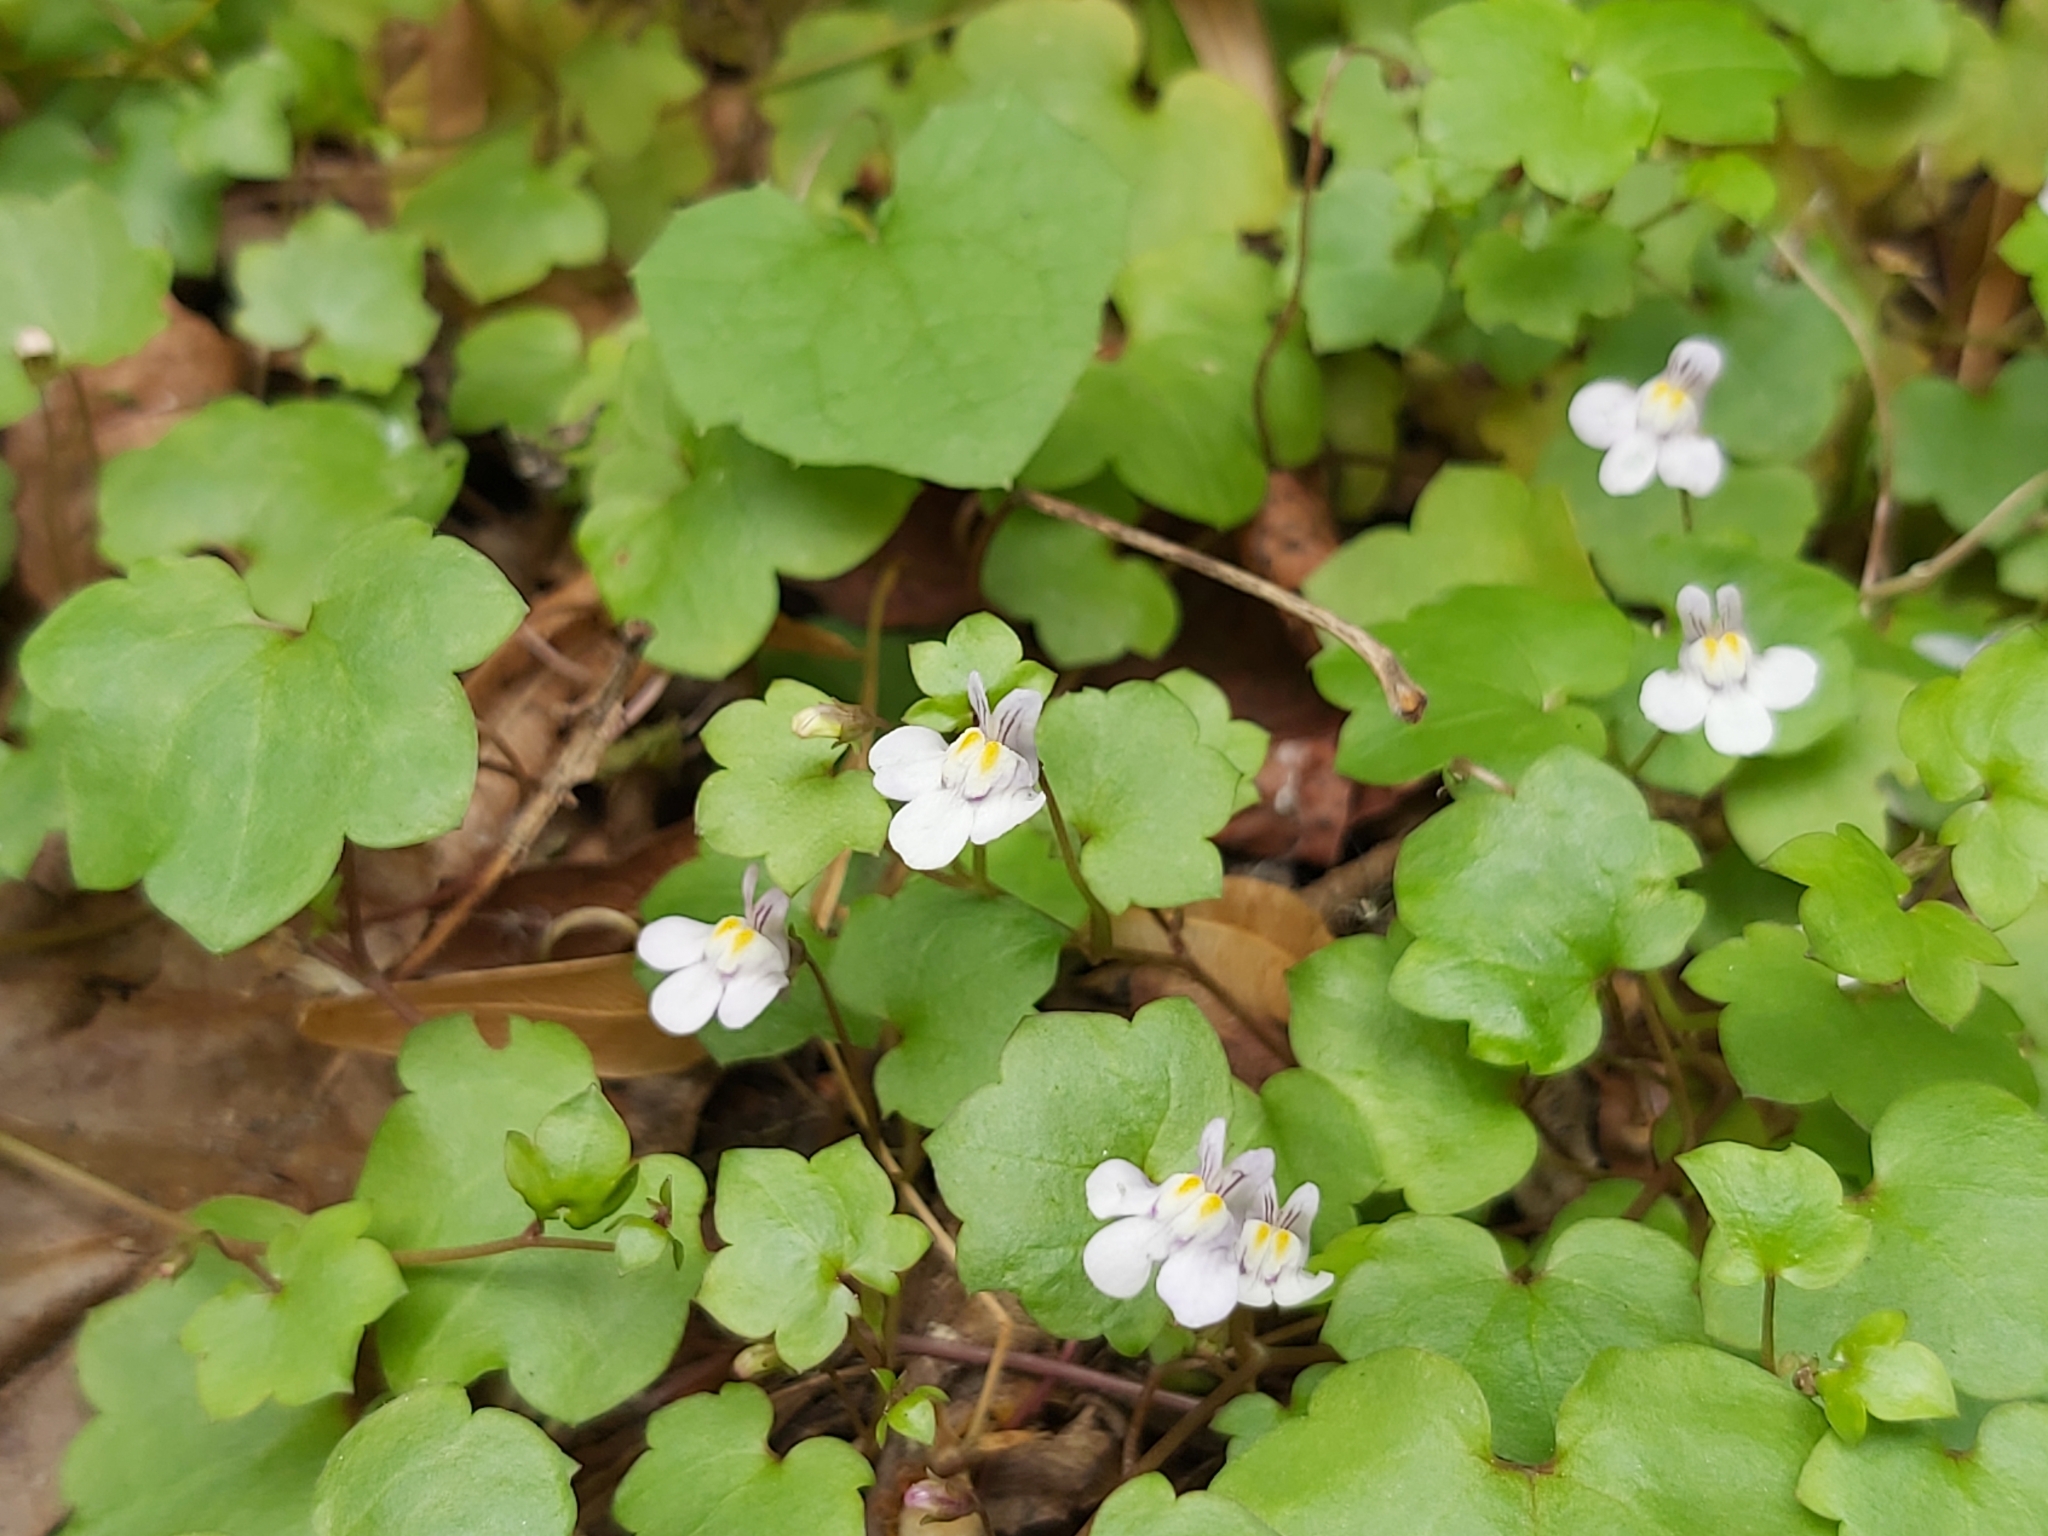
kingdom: Plantae
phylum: Tracheophyta
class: Magnoliopsida
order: Lamiales
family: Plantaginaceae
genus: Cymbalaria
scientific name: Cymbalaria muralis
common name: Ivy-leaved toadflax
